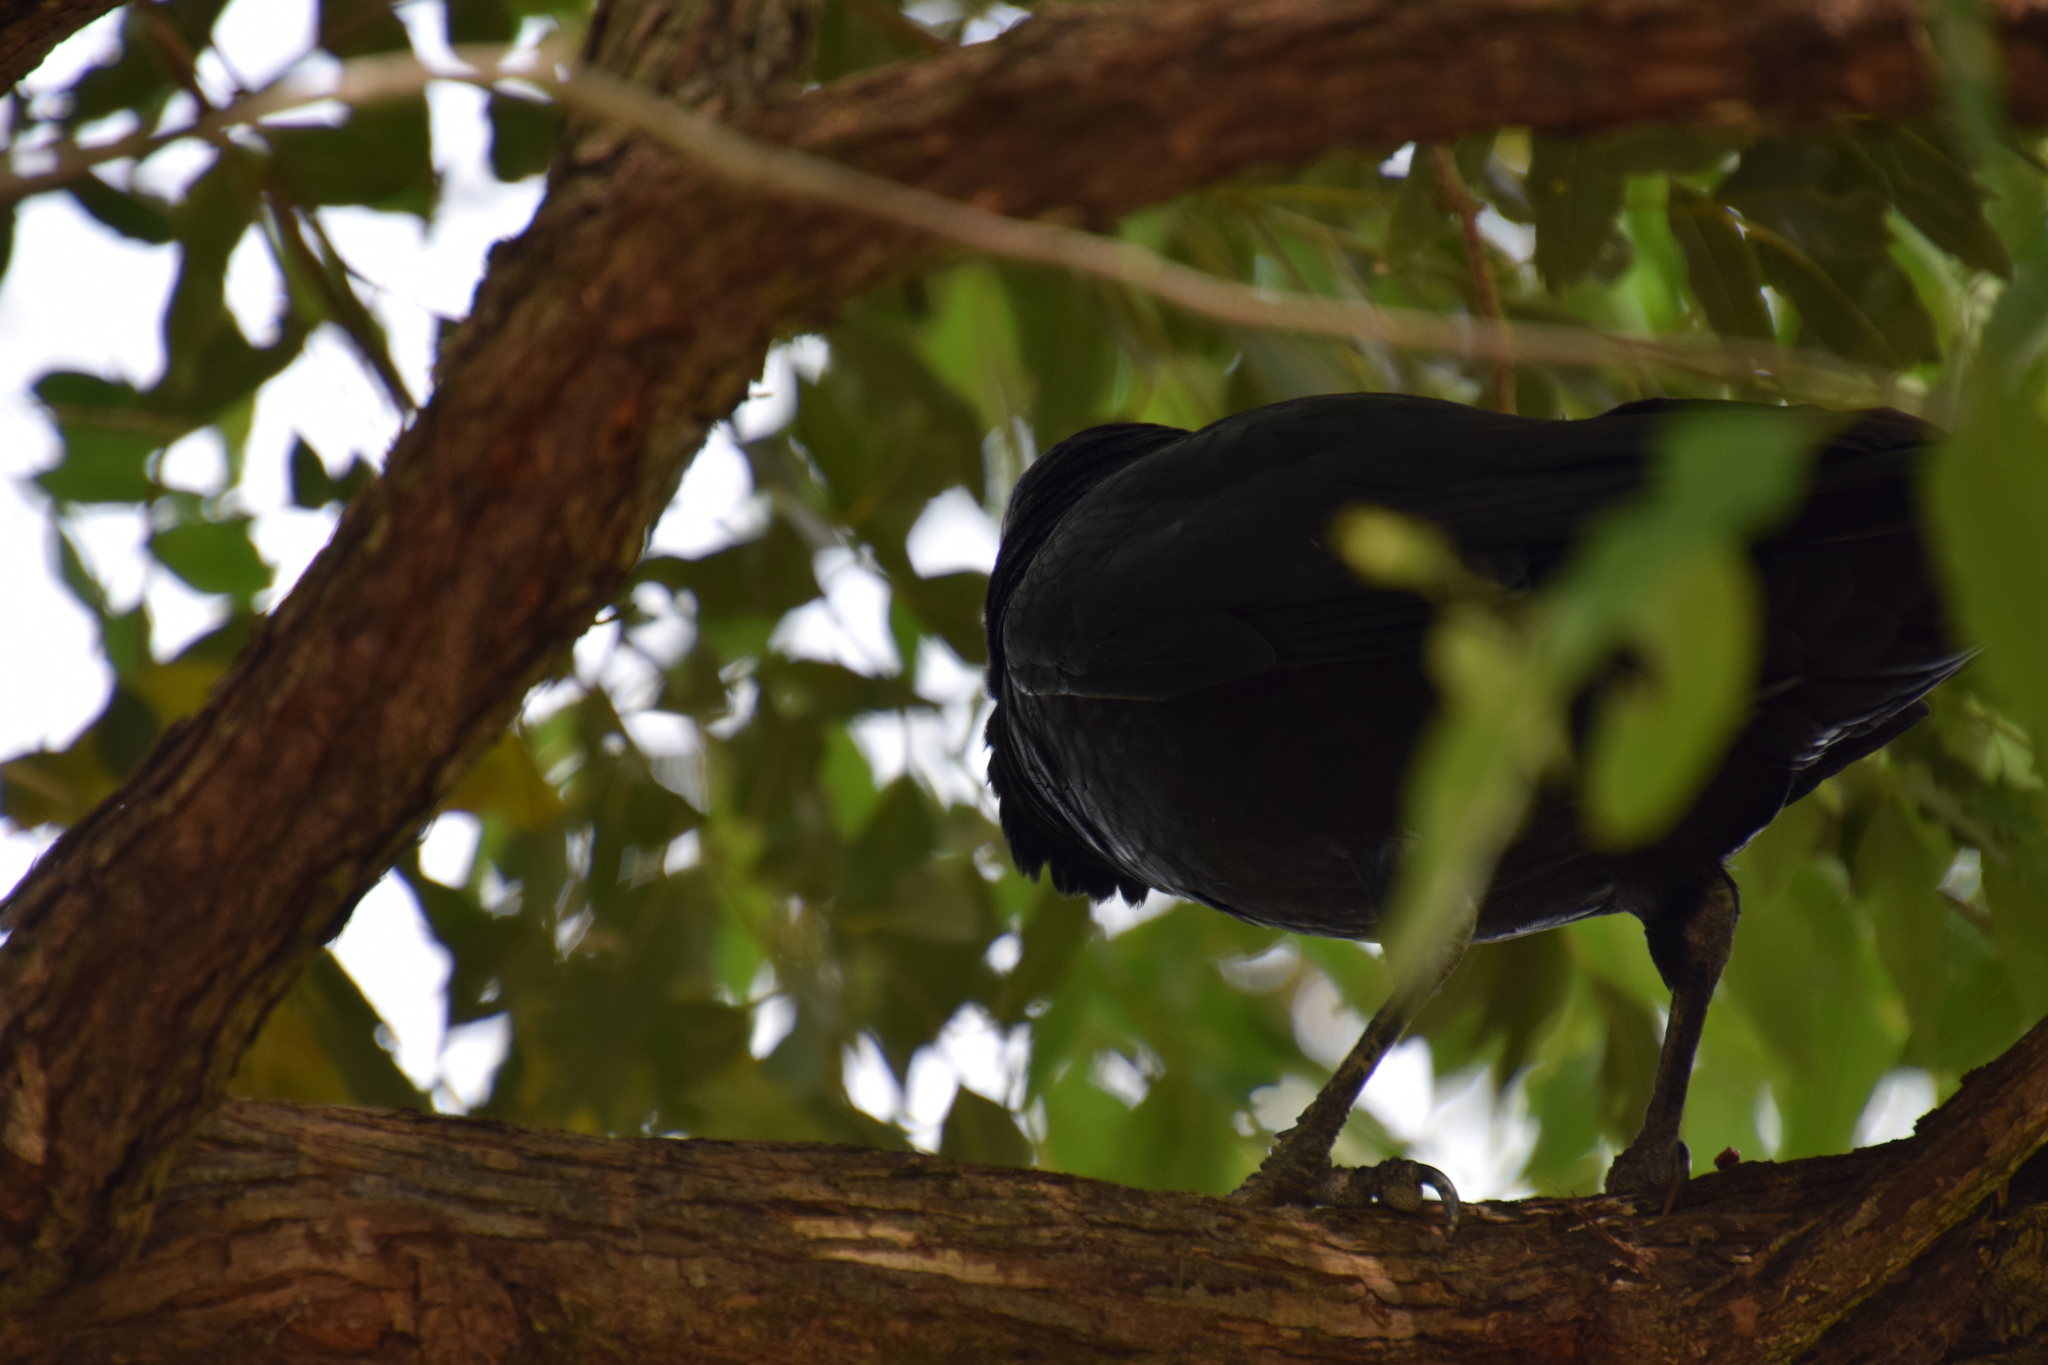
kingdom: Animalia
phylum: Chordata
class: Aves
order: Passeriformes
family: Corvidae
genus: Corvus
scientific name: Corvus coronoides
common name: Australian raven
